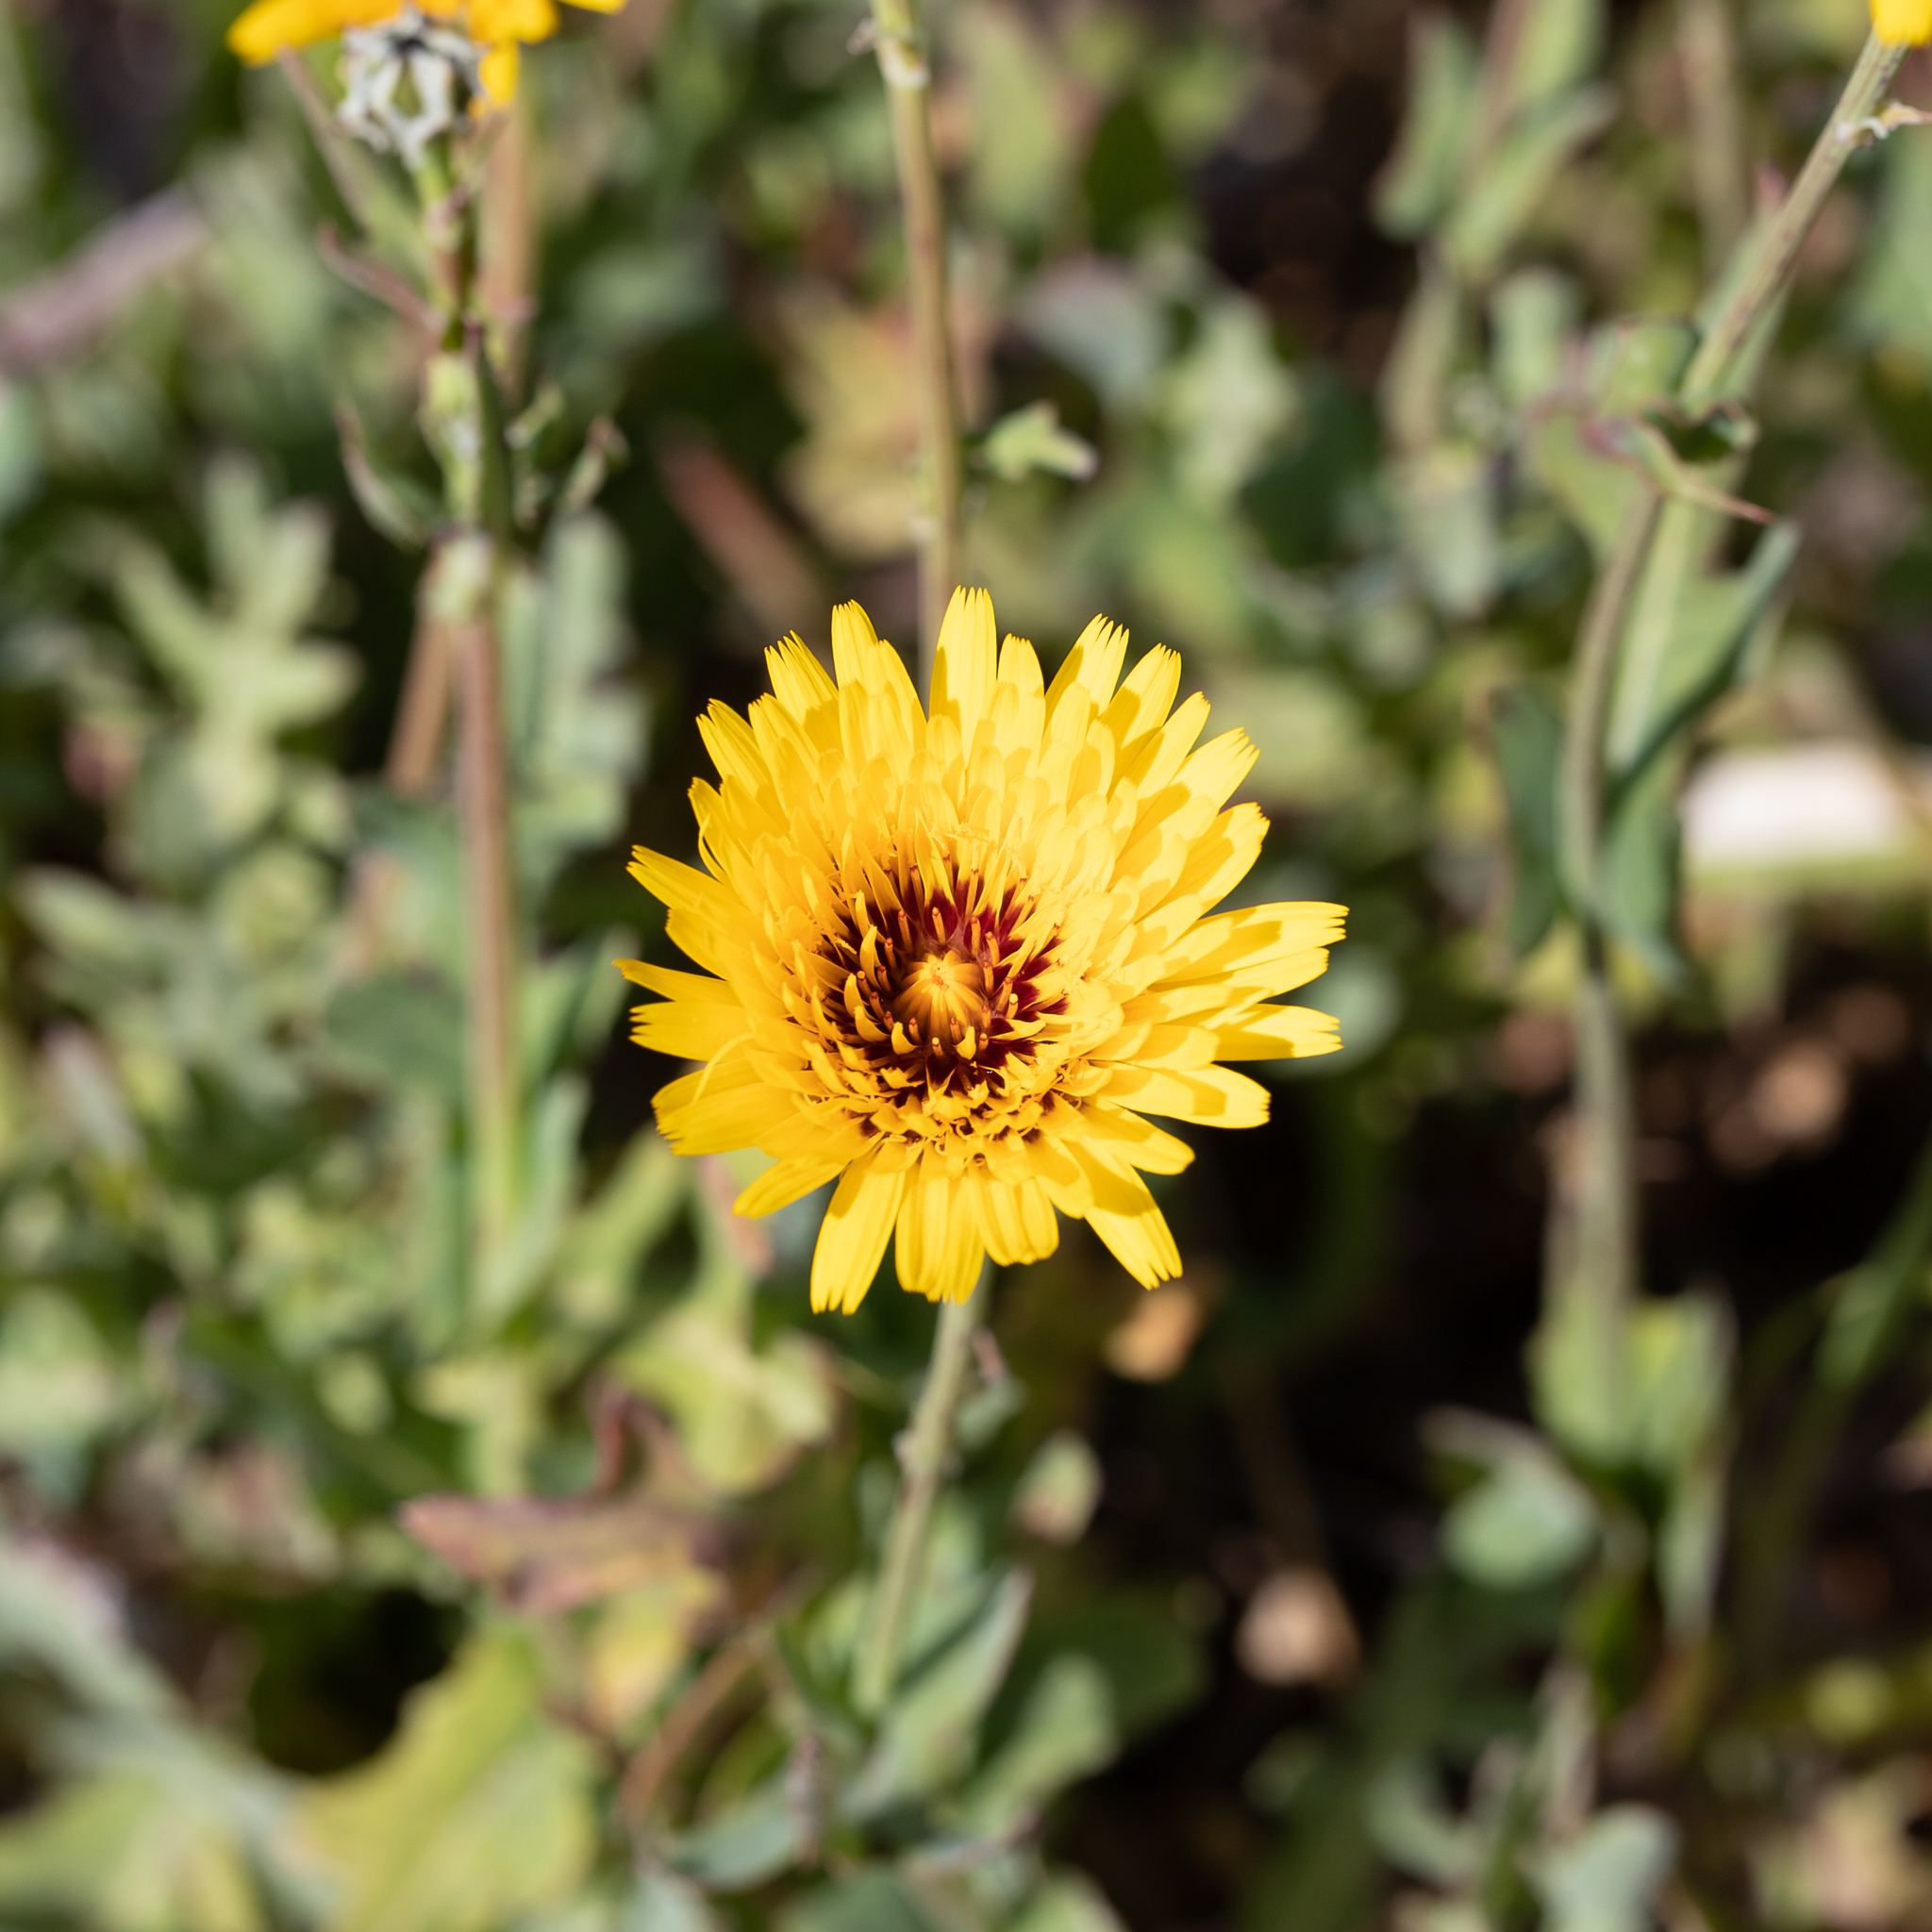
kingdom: Plantae
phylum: Tracheophyta
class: Magnoliopsida
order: Asterales
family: Asteraceae
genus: Reichardia
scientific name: Reichardia tingitana
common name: Reichardia
